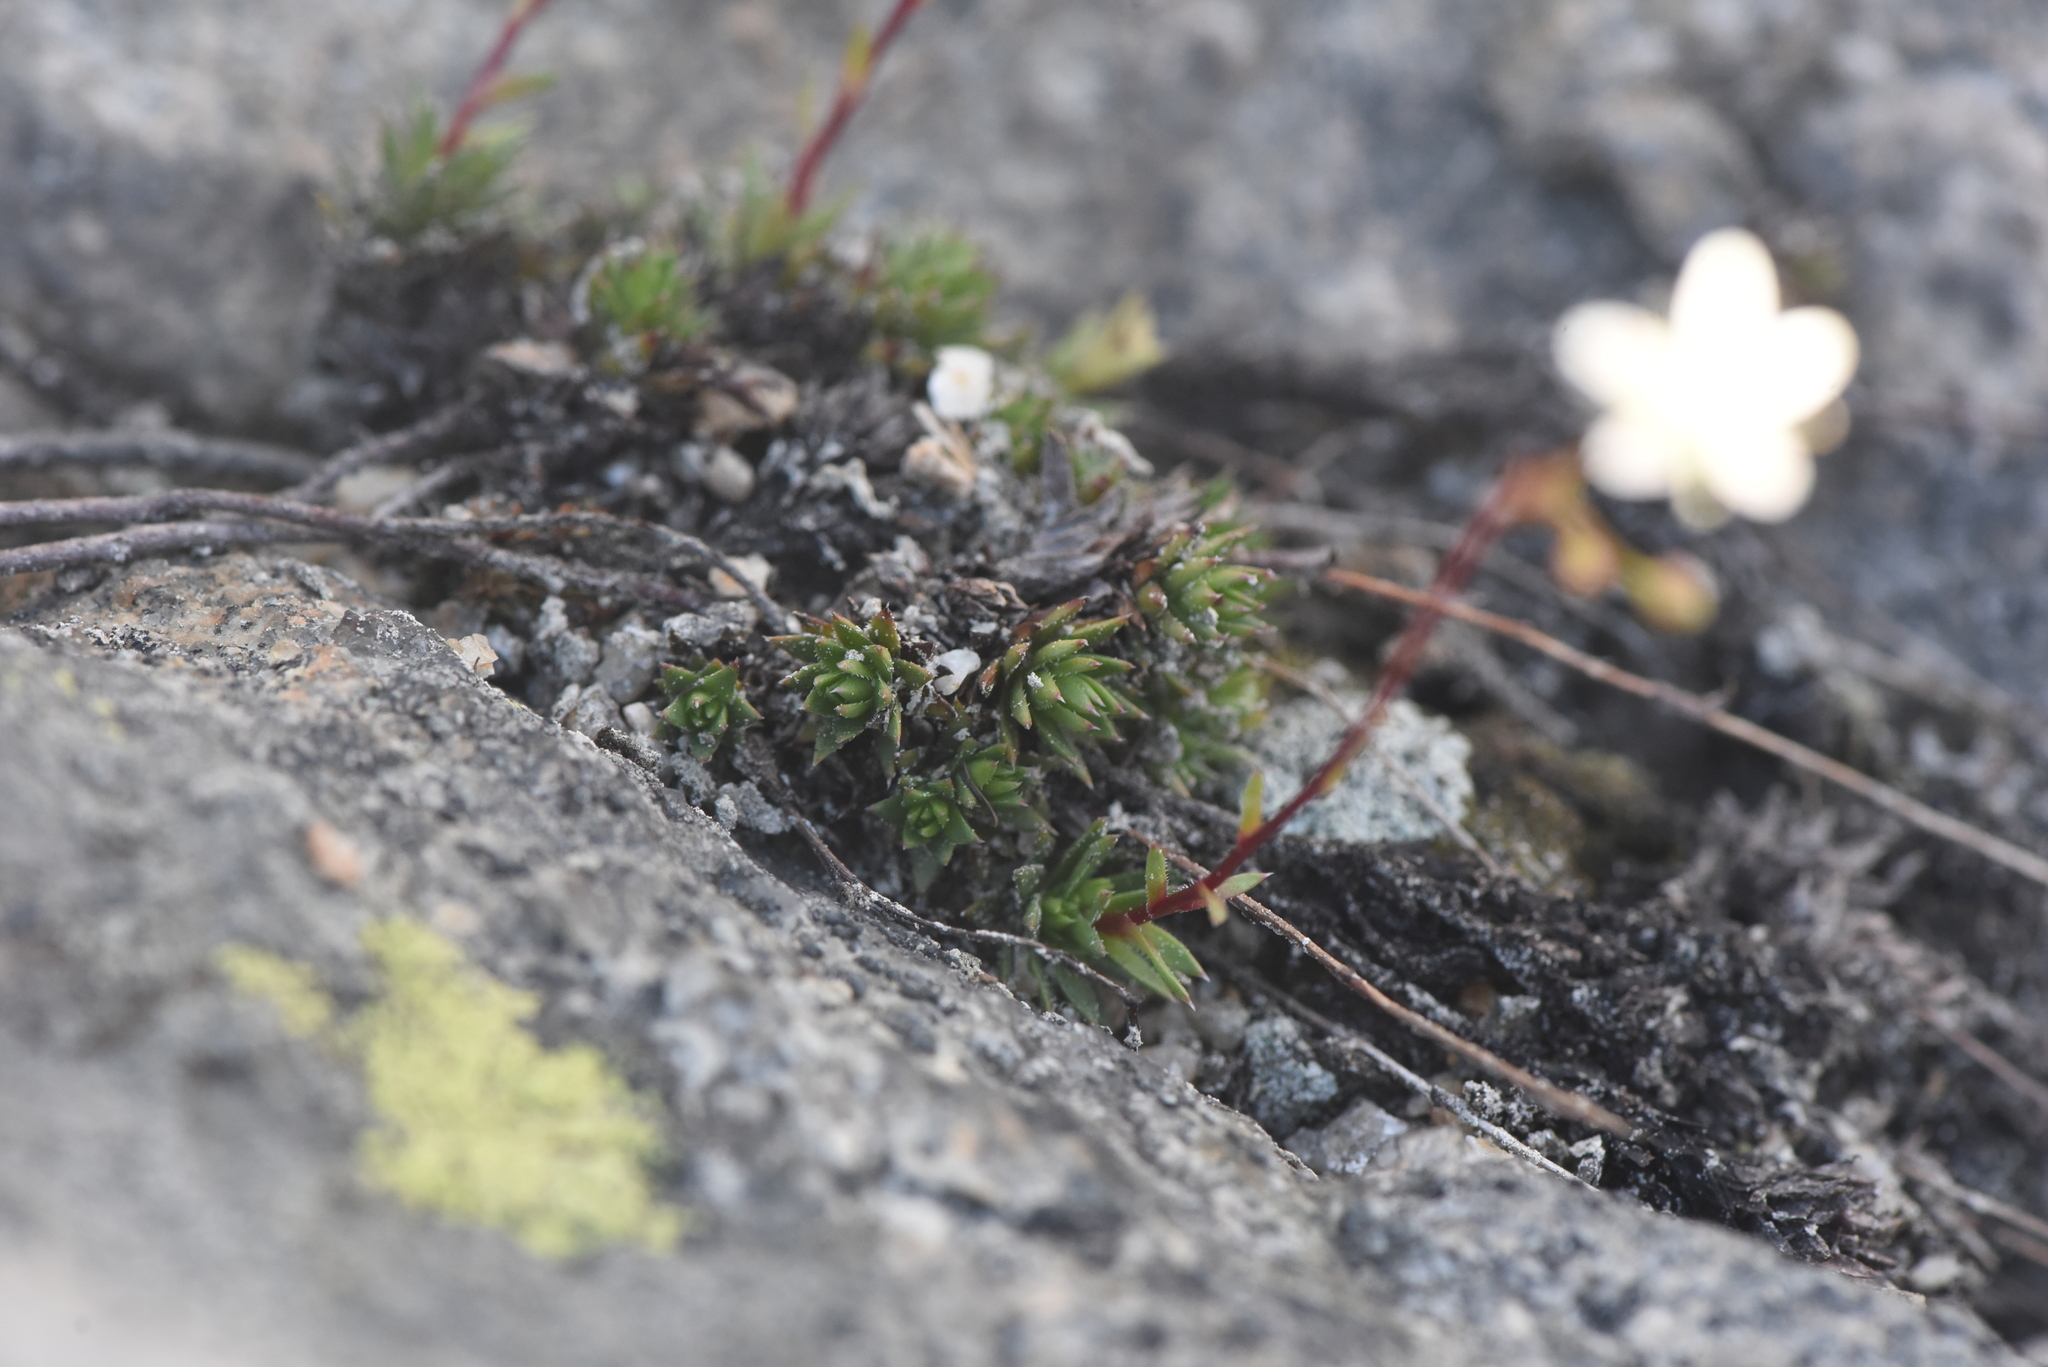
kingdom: Plantae
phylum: Tracheophyta
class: Magnoliopsida
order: Saxifragales
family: Saxifragaceae
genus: Saxifraga
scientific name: Saxifraga bronchialis
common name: Matted saxifrage
